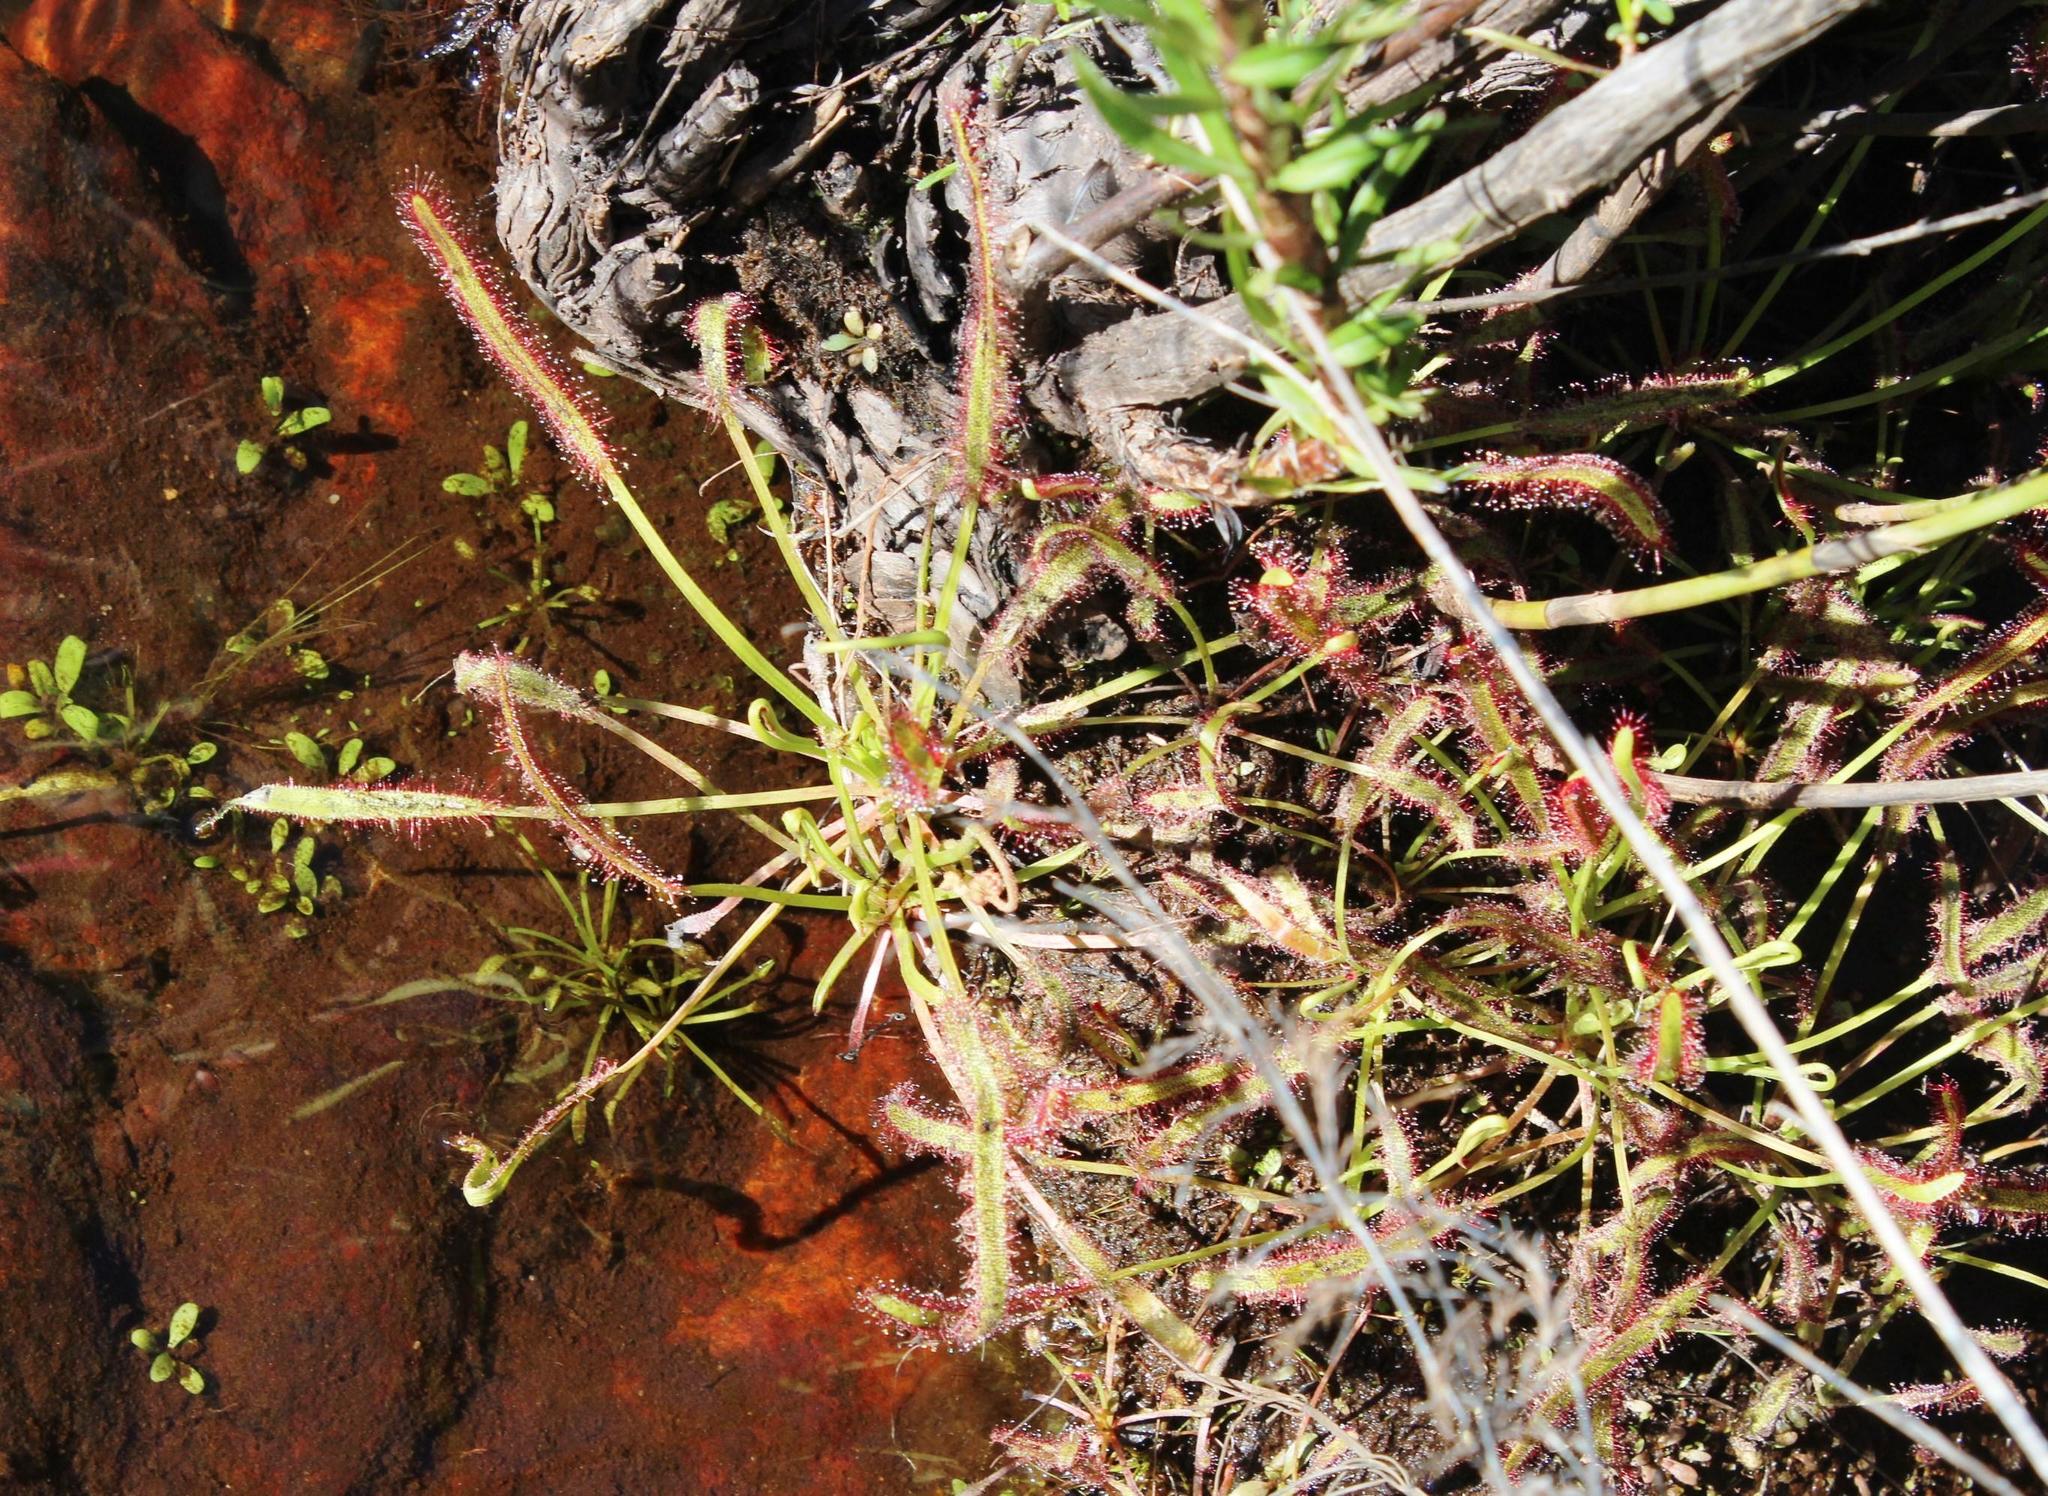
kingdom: Plantae
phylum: Tracheophyta
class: Magnoliopsida
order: Caryophyllales
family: Droseraceae
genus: Drosera
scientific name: Drosera capensis
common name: Cape sundew
